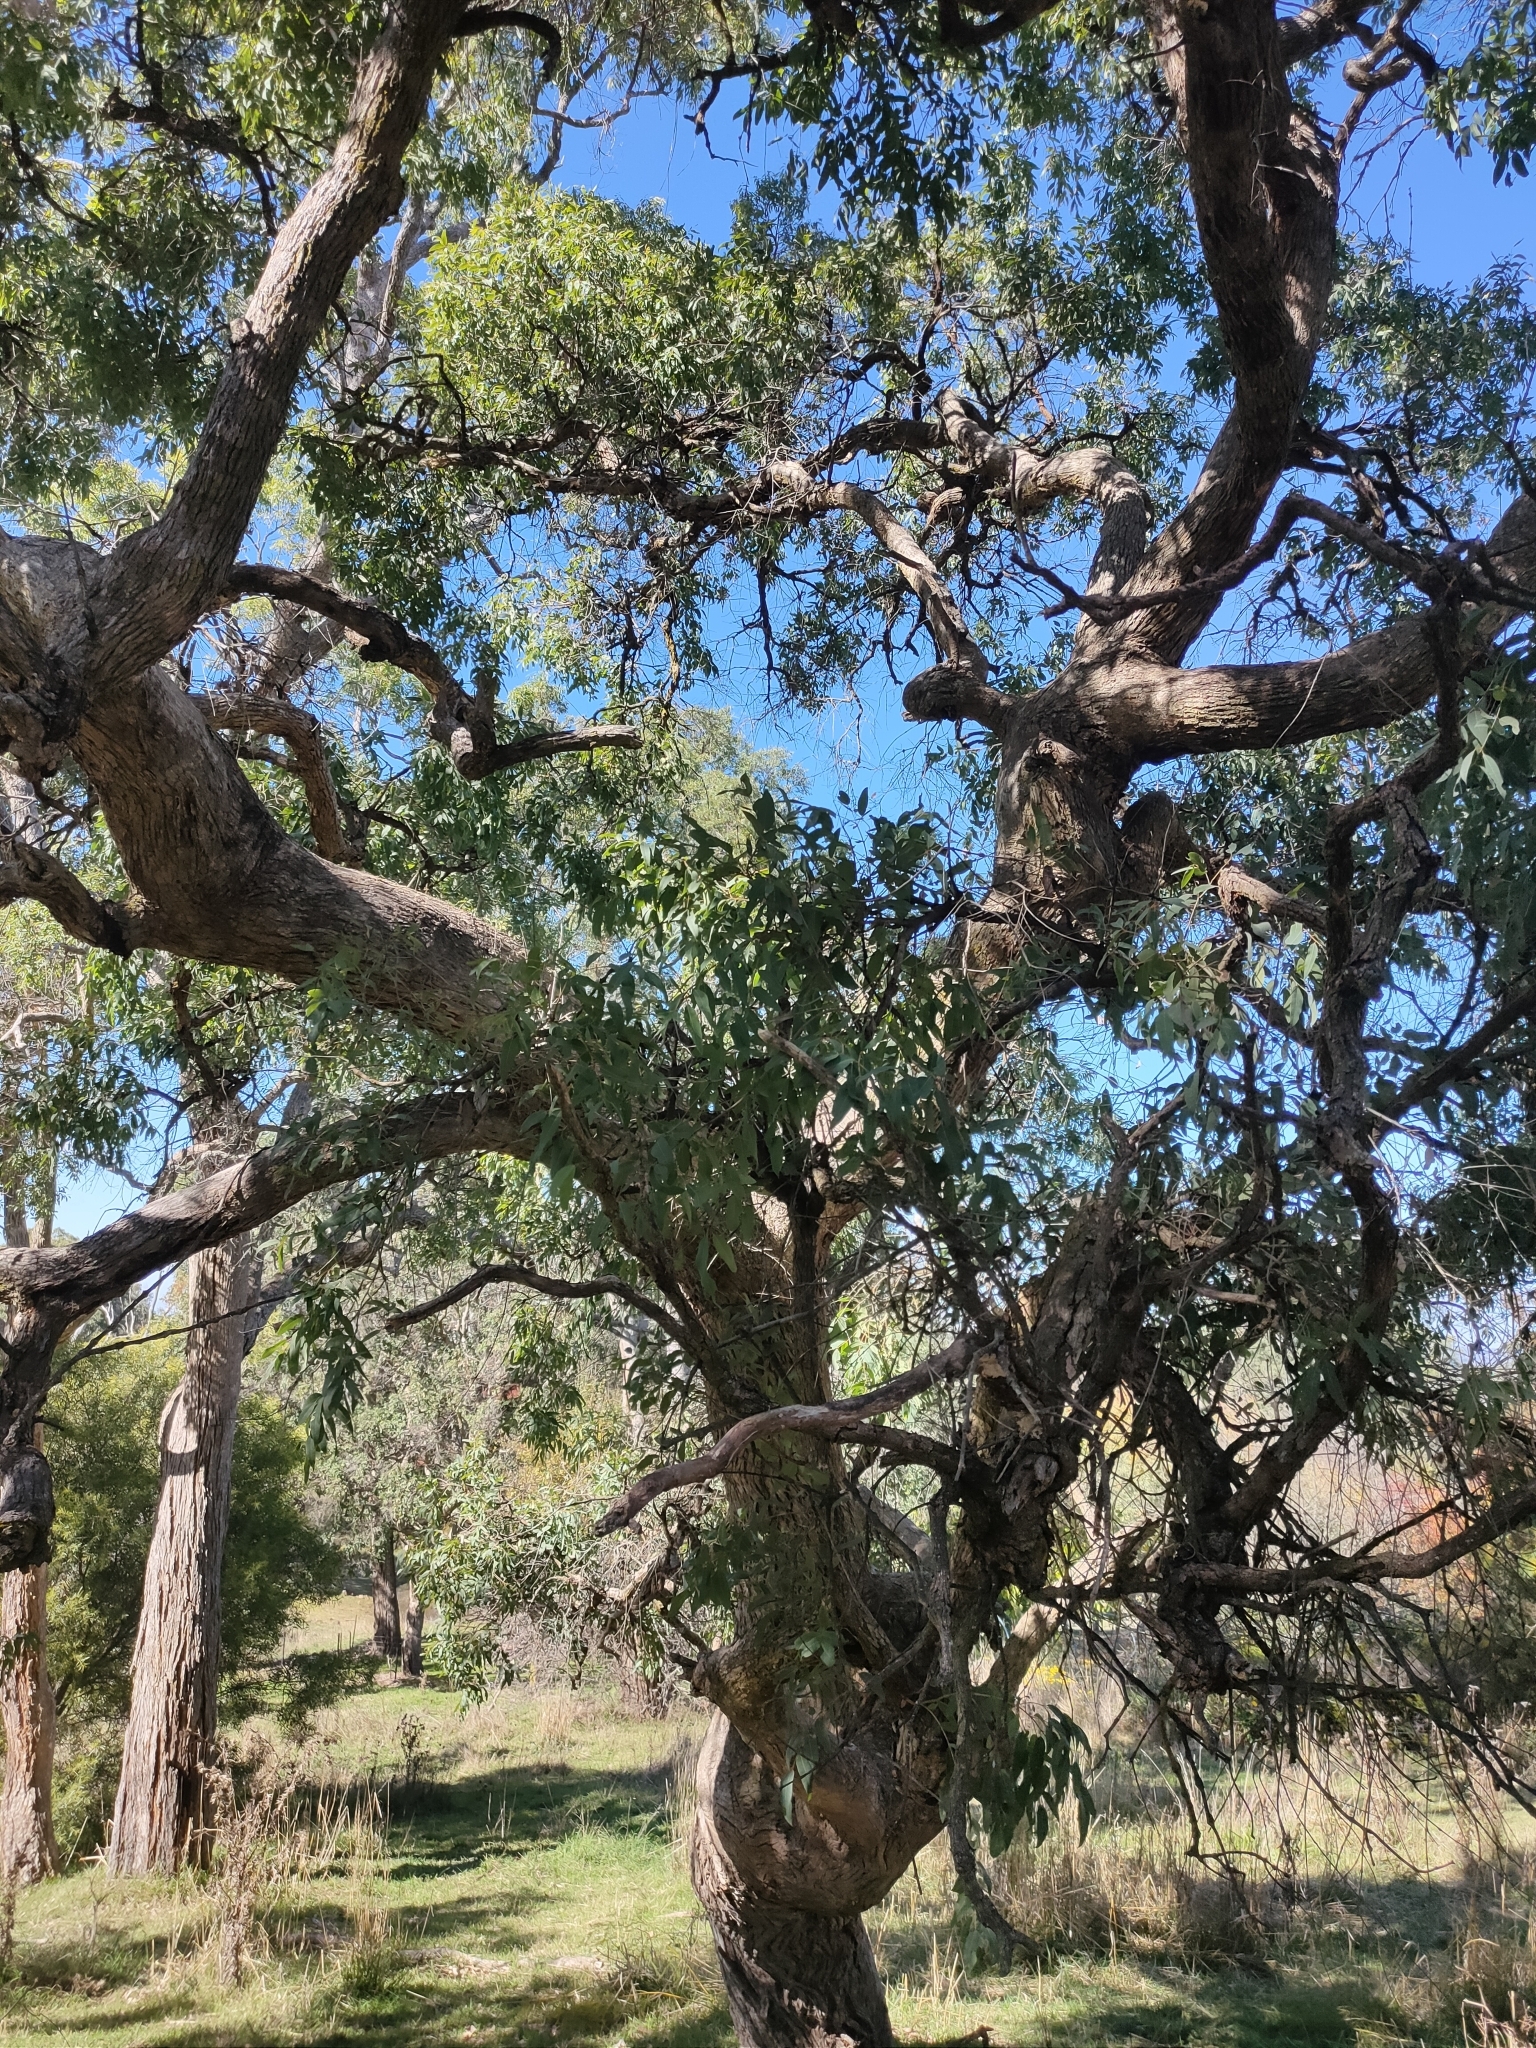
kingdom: Plantae
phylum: Tracheophyta
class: Magnoliopsida
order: Myrtales
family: Myrtaceae
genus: Angophora
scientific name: Angophora floribunda
